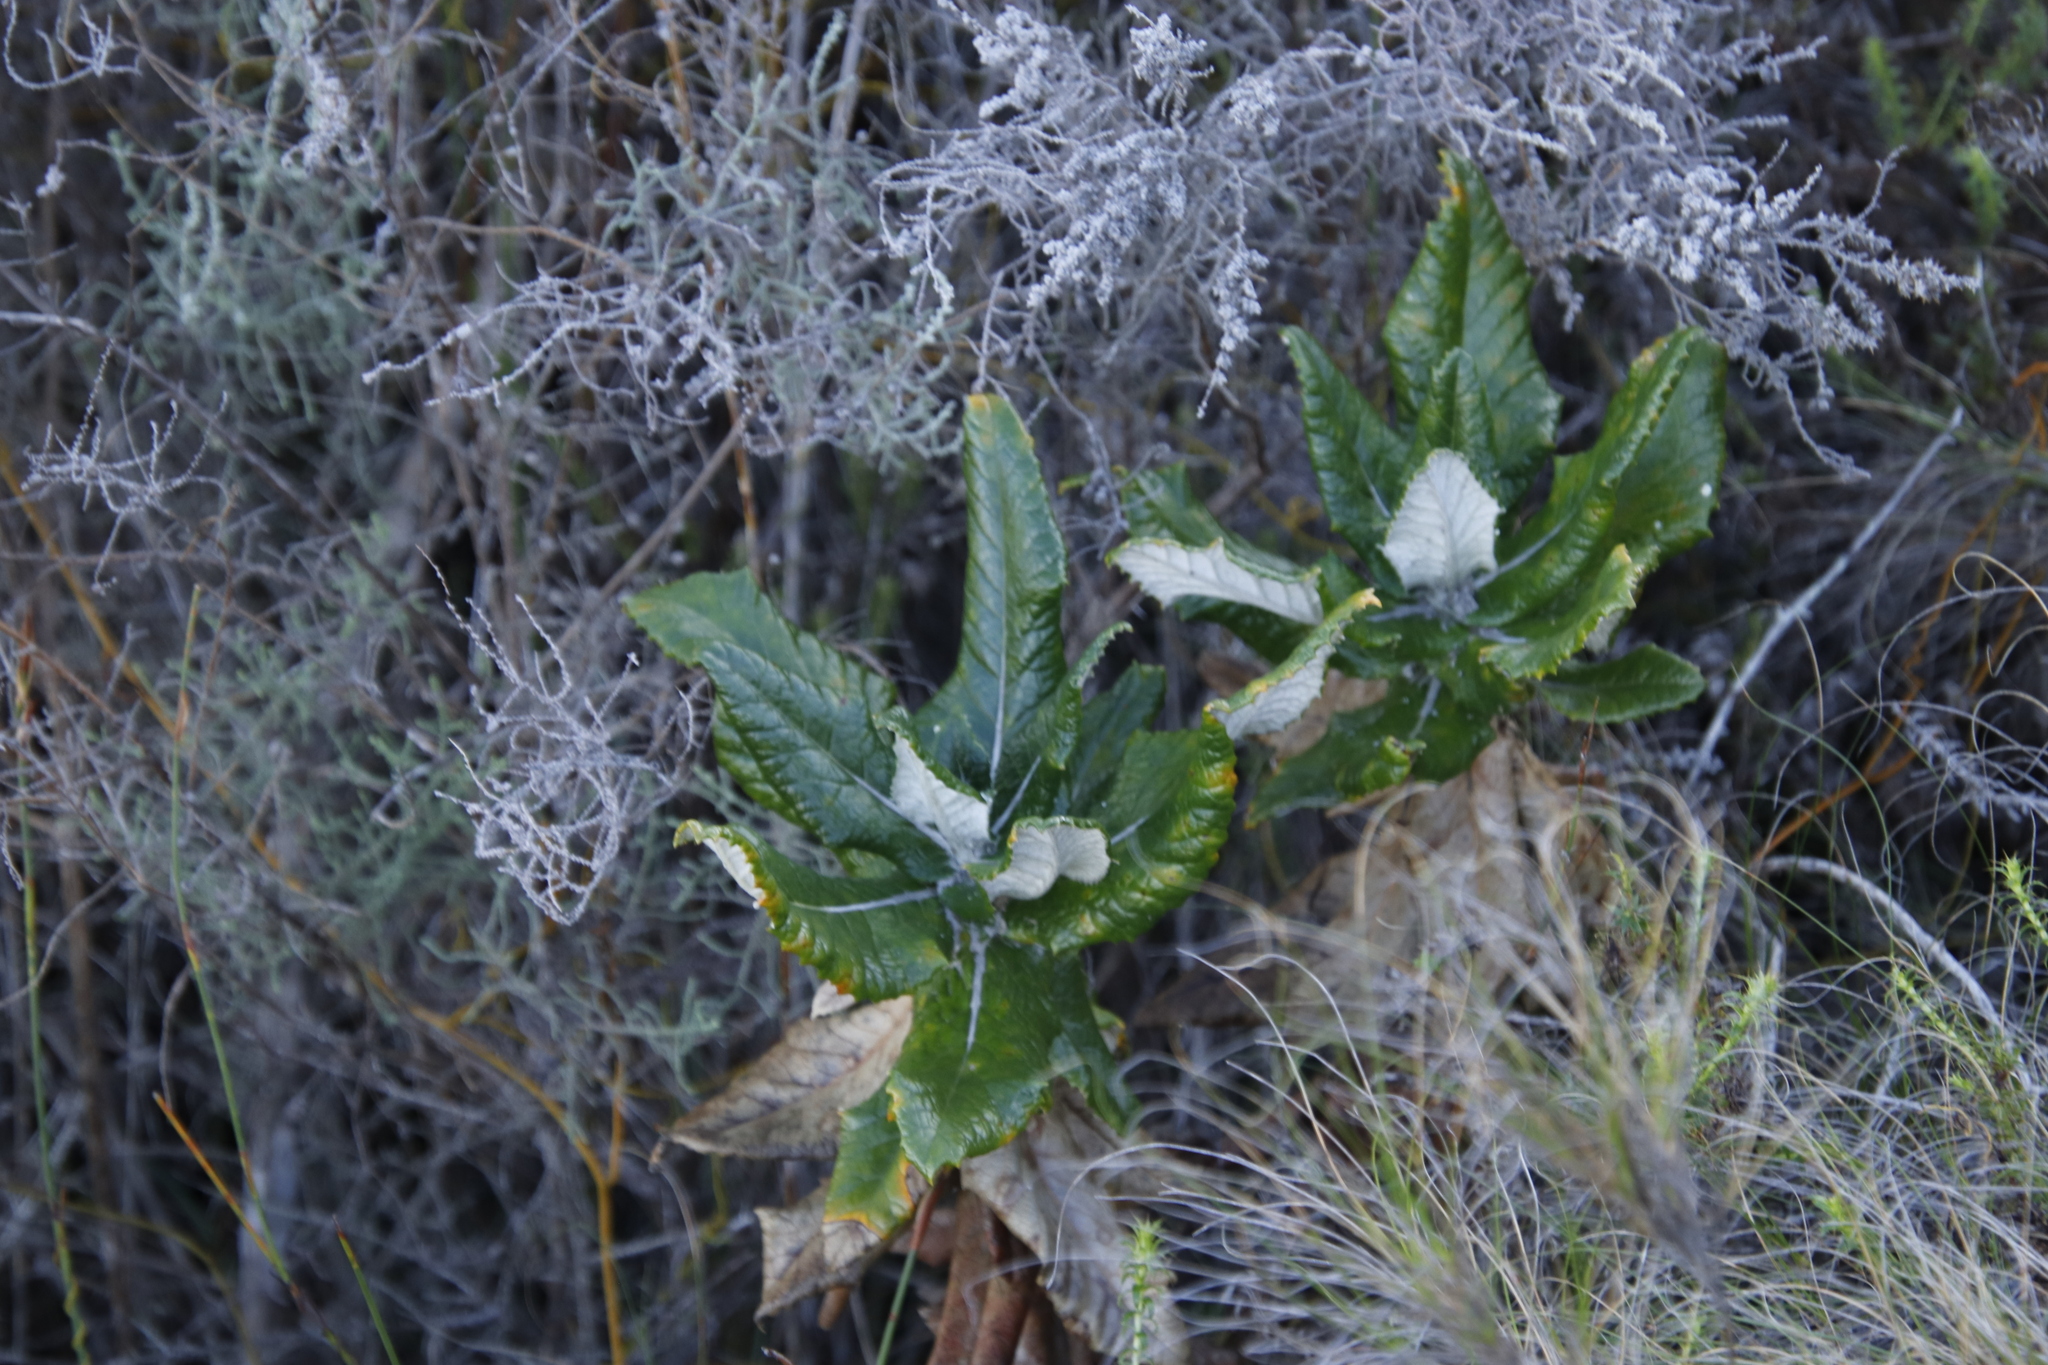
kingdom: Plantae
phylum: Tracheophyta
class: Magnoliopsida
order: Apiales
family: Apiaceae
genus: Hermas
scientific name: Hermas villosa
